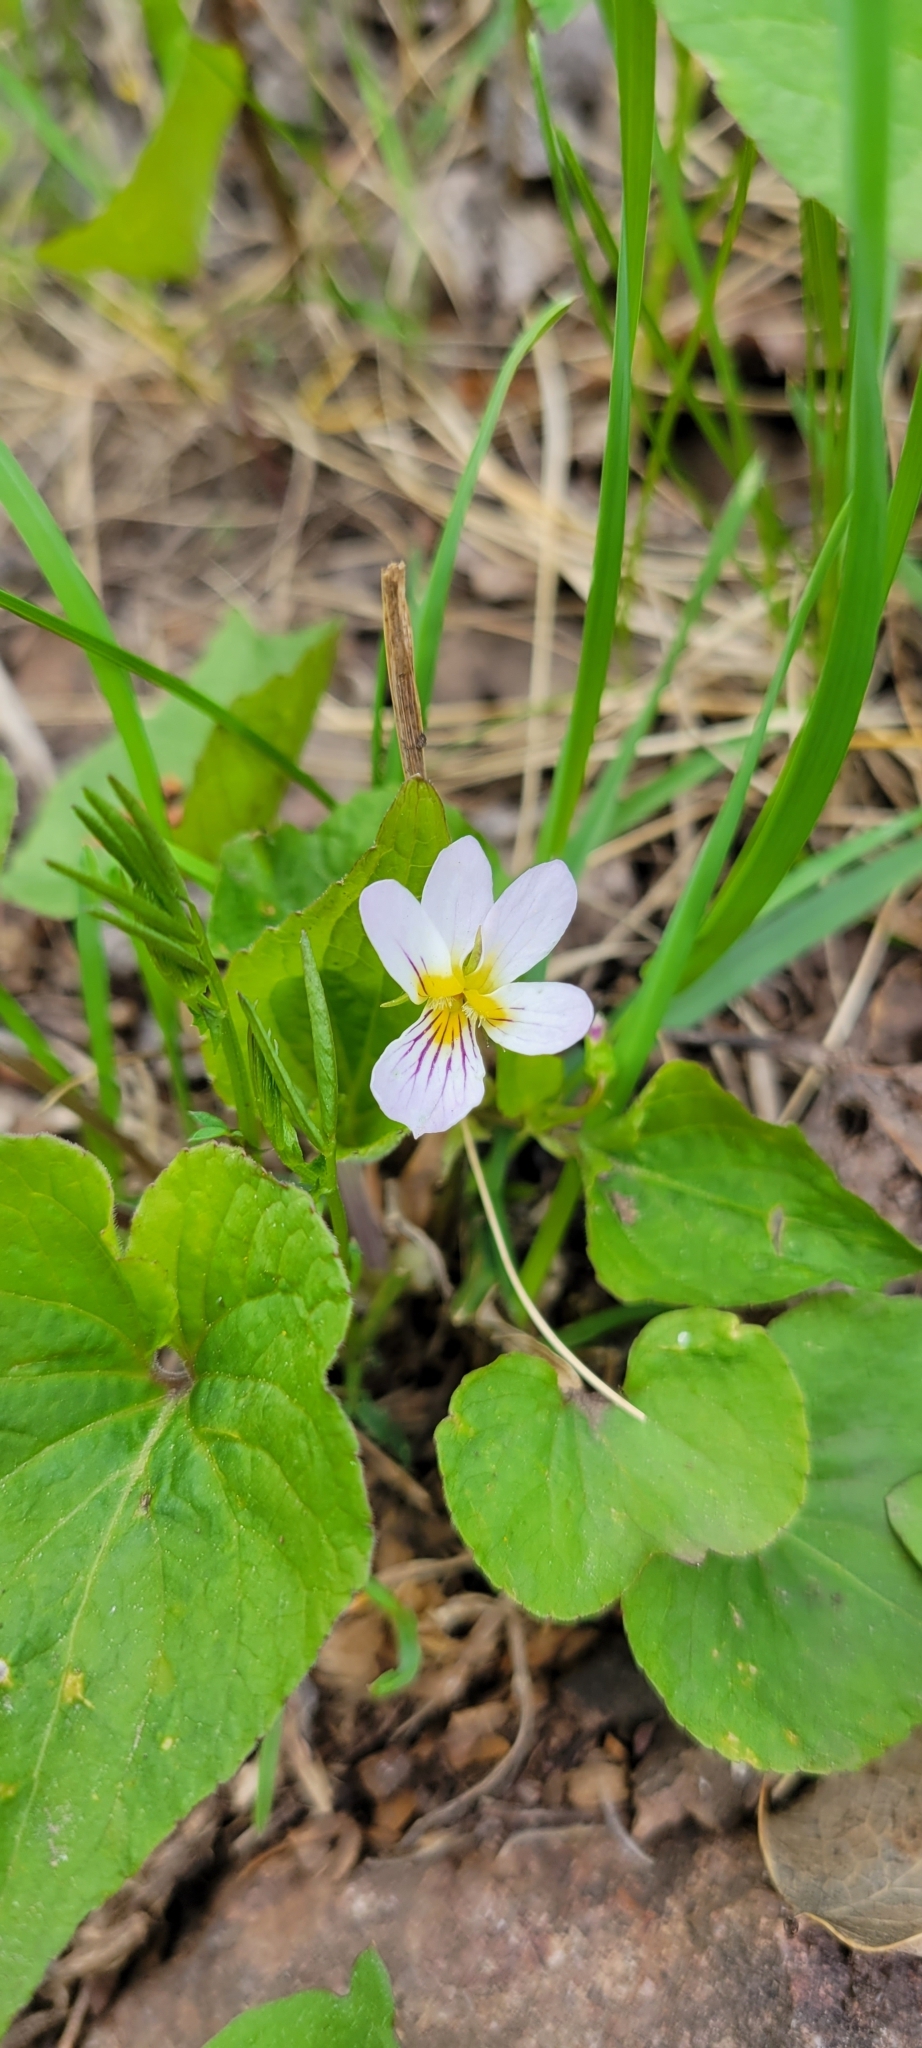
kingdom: Plantae
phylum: Tracheophyta
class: Magnoliopsida
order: Malpighiales
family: Violaceae
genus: Viola
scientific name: Viola canadensis
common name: Canada violet
